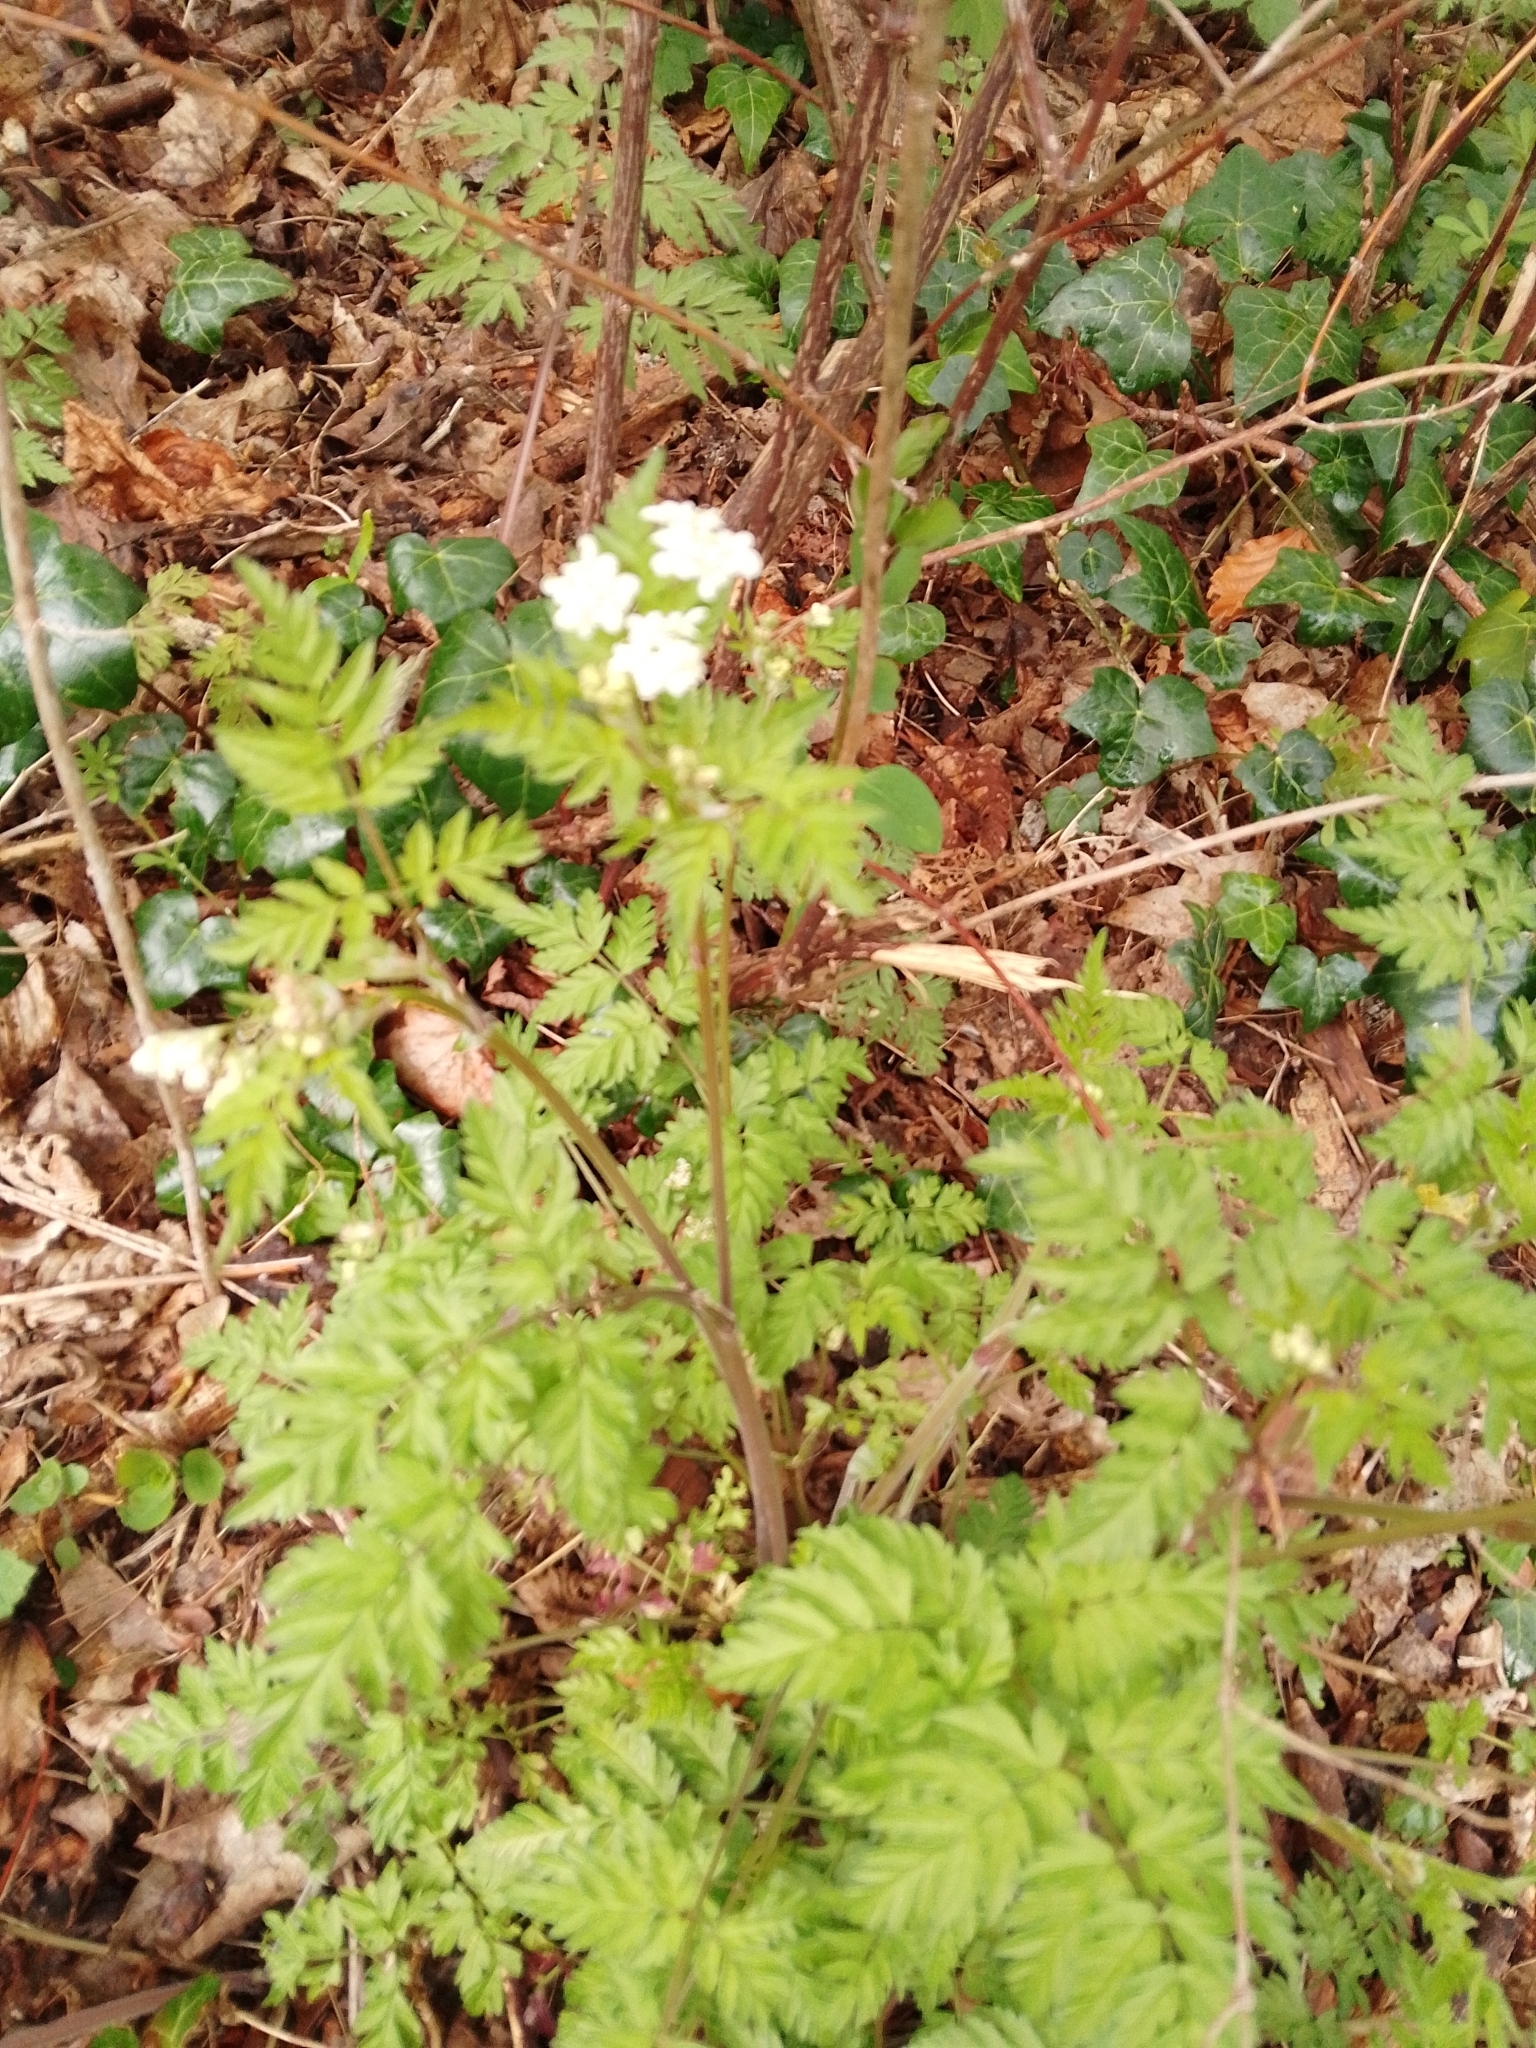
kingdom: Plantae
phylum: Tracheophyta
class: Magnoliopsida
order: Apiales
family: Apiaceae
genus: Anthriscus
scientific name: Anthriscus sylvestris
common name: Cow parsley
